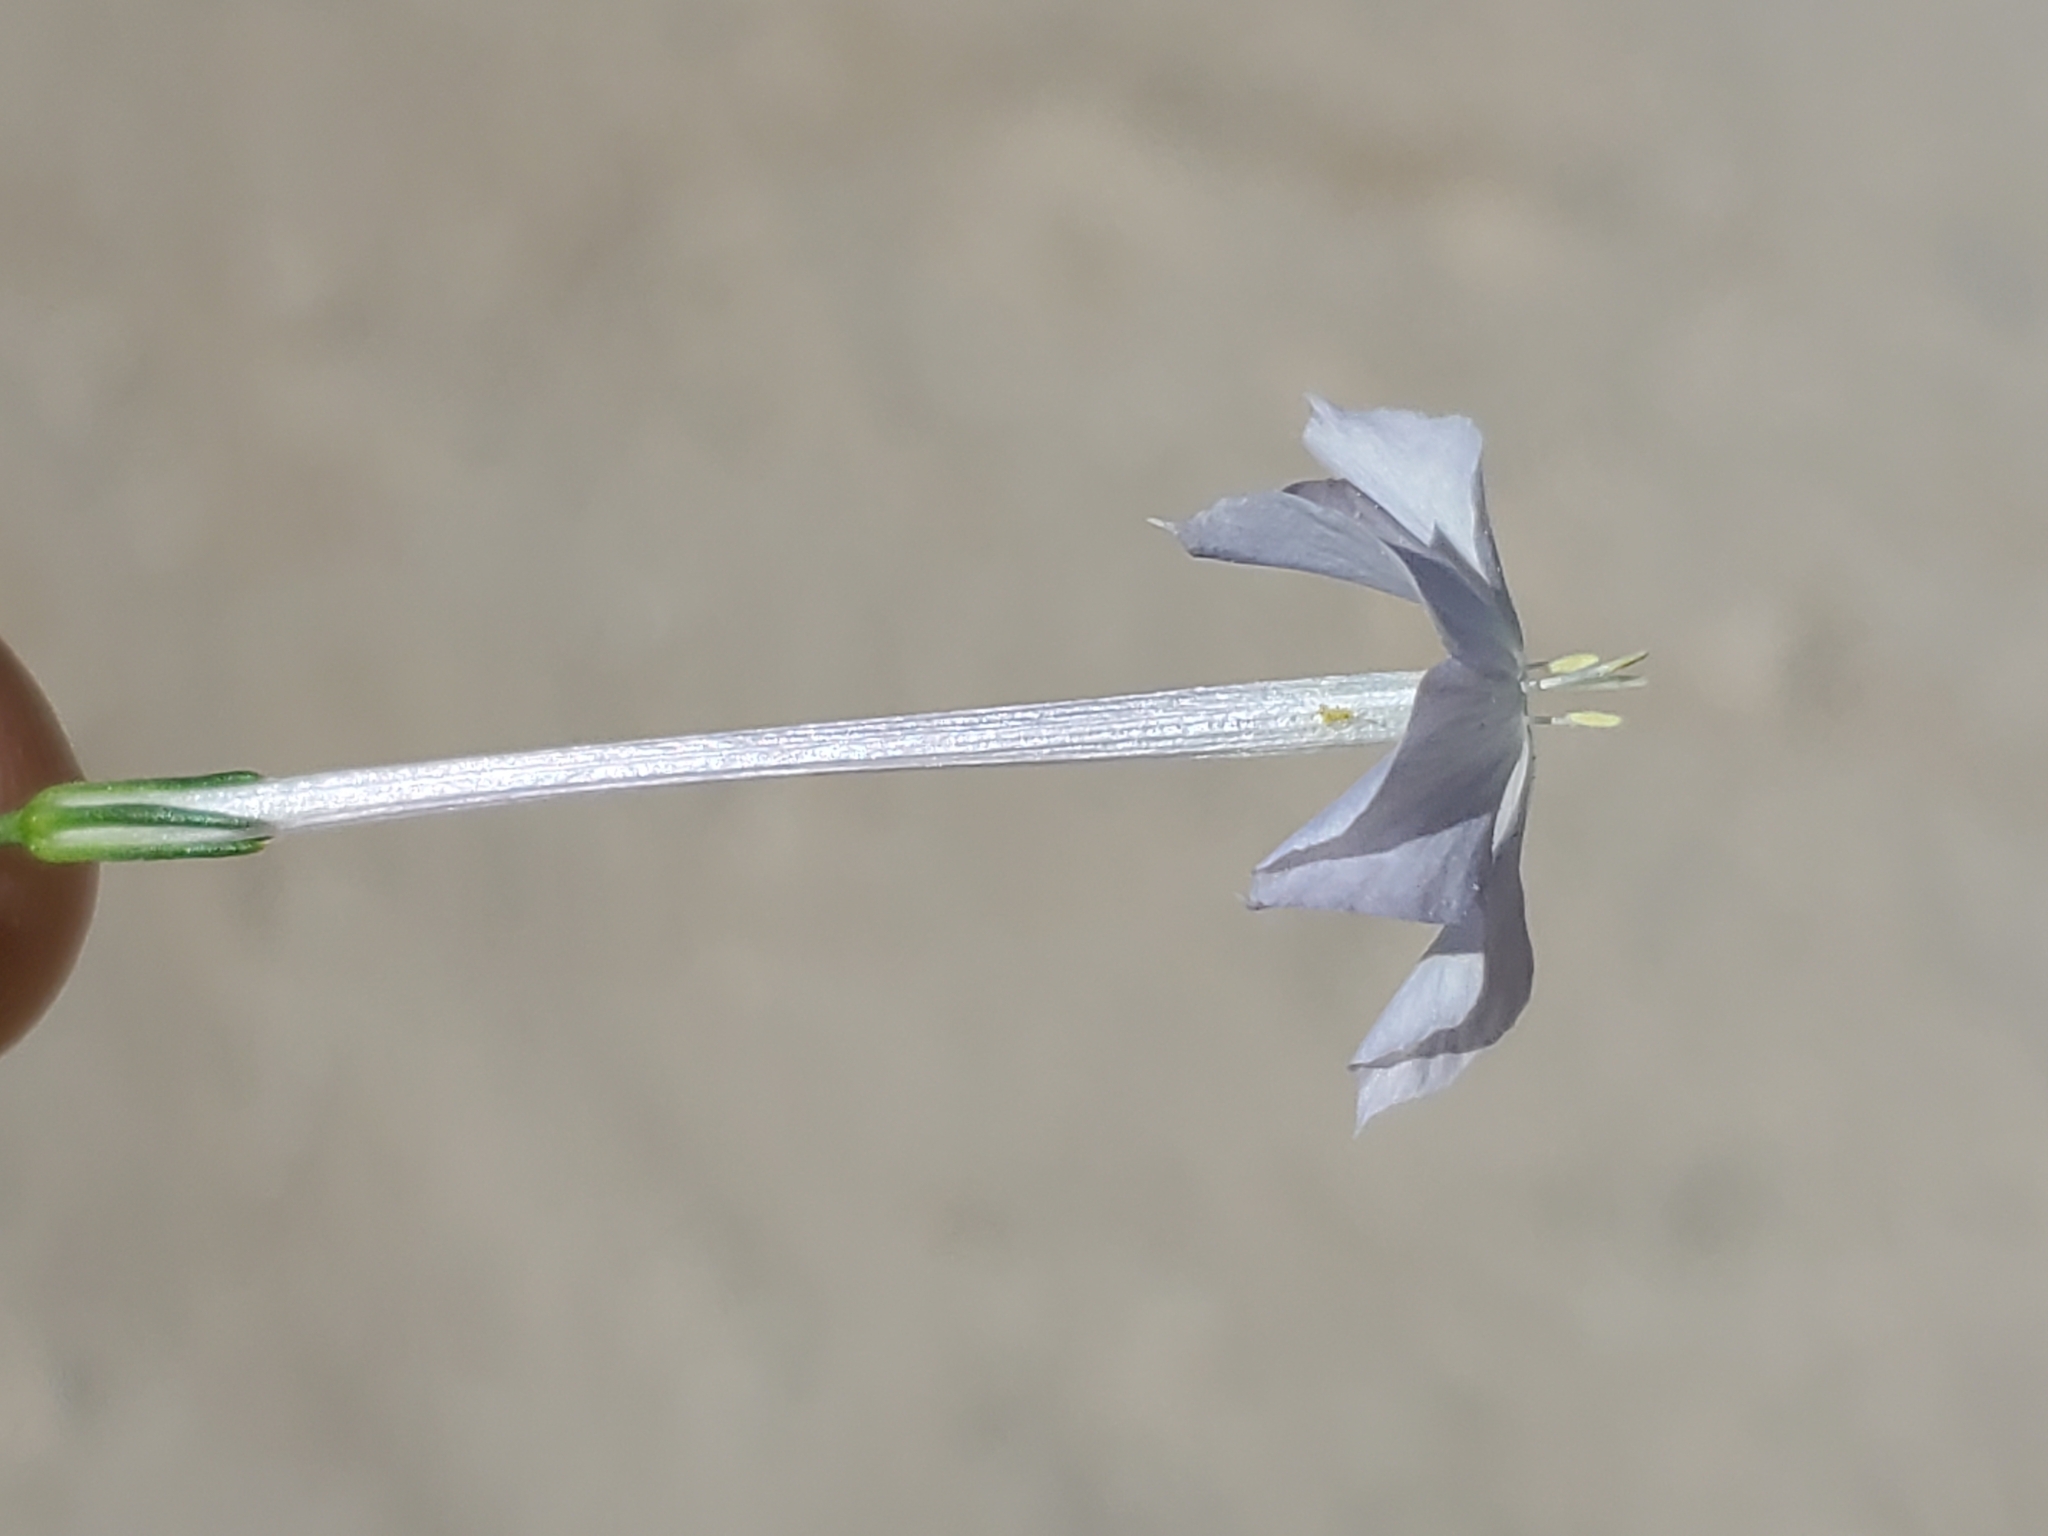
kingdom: Plantae
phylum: Tracheophyta
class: Magnoliopsida
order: Ericales
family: Polemoniaceae
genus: Ipomopsis
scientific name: Ipomopsis longiflora
